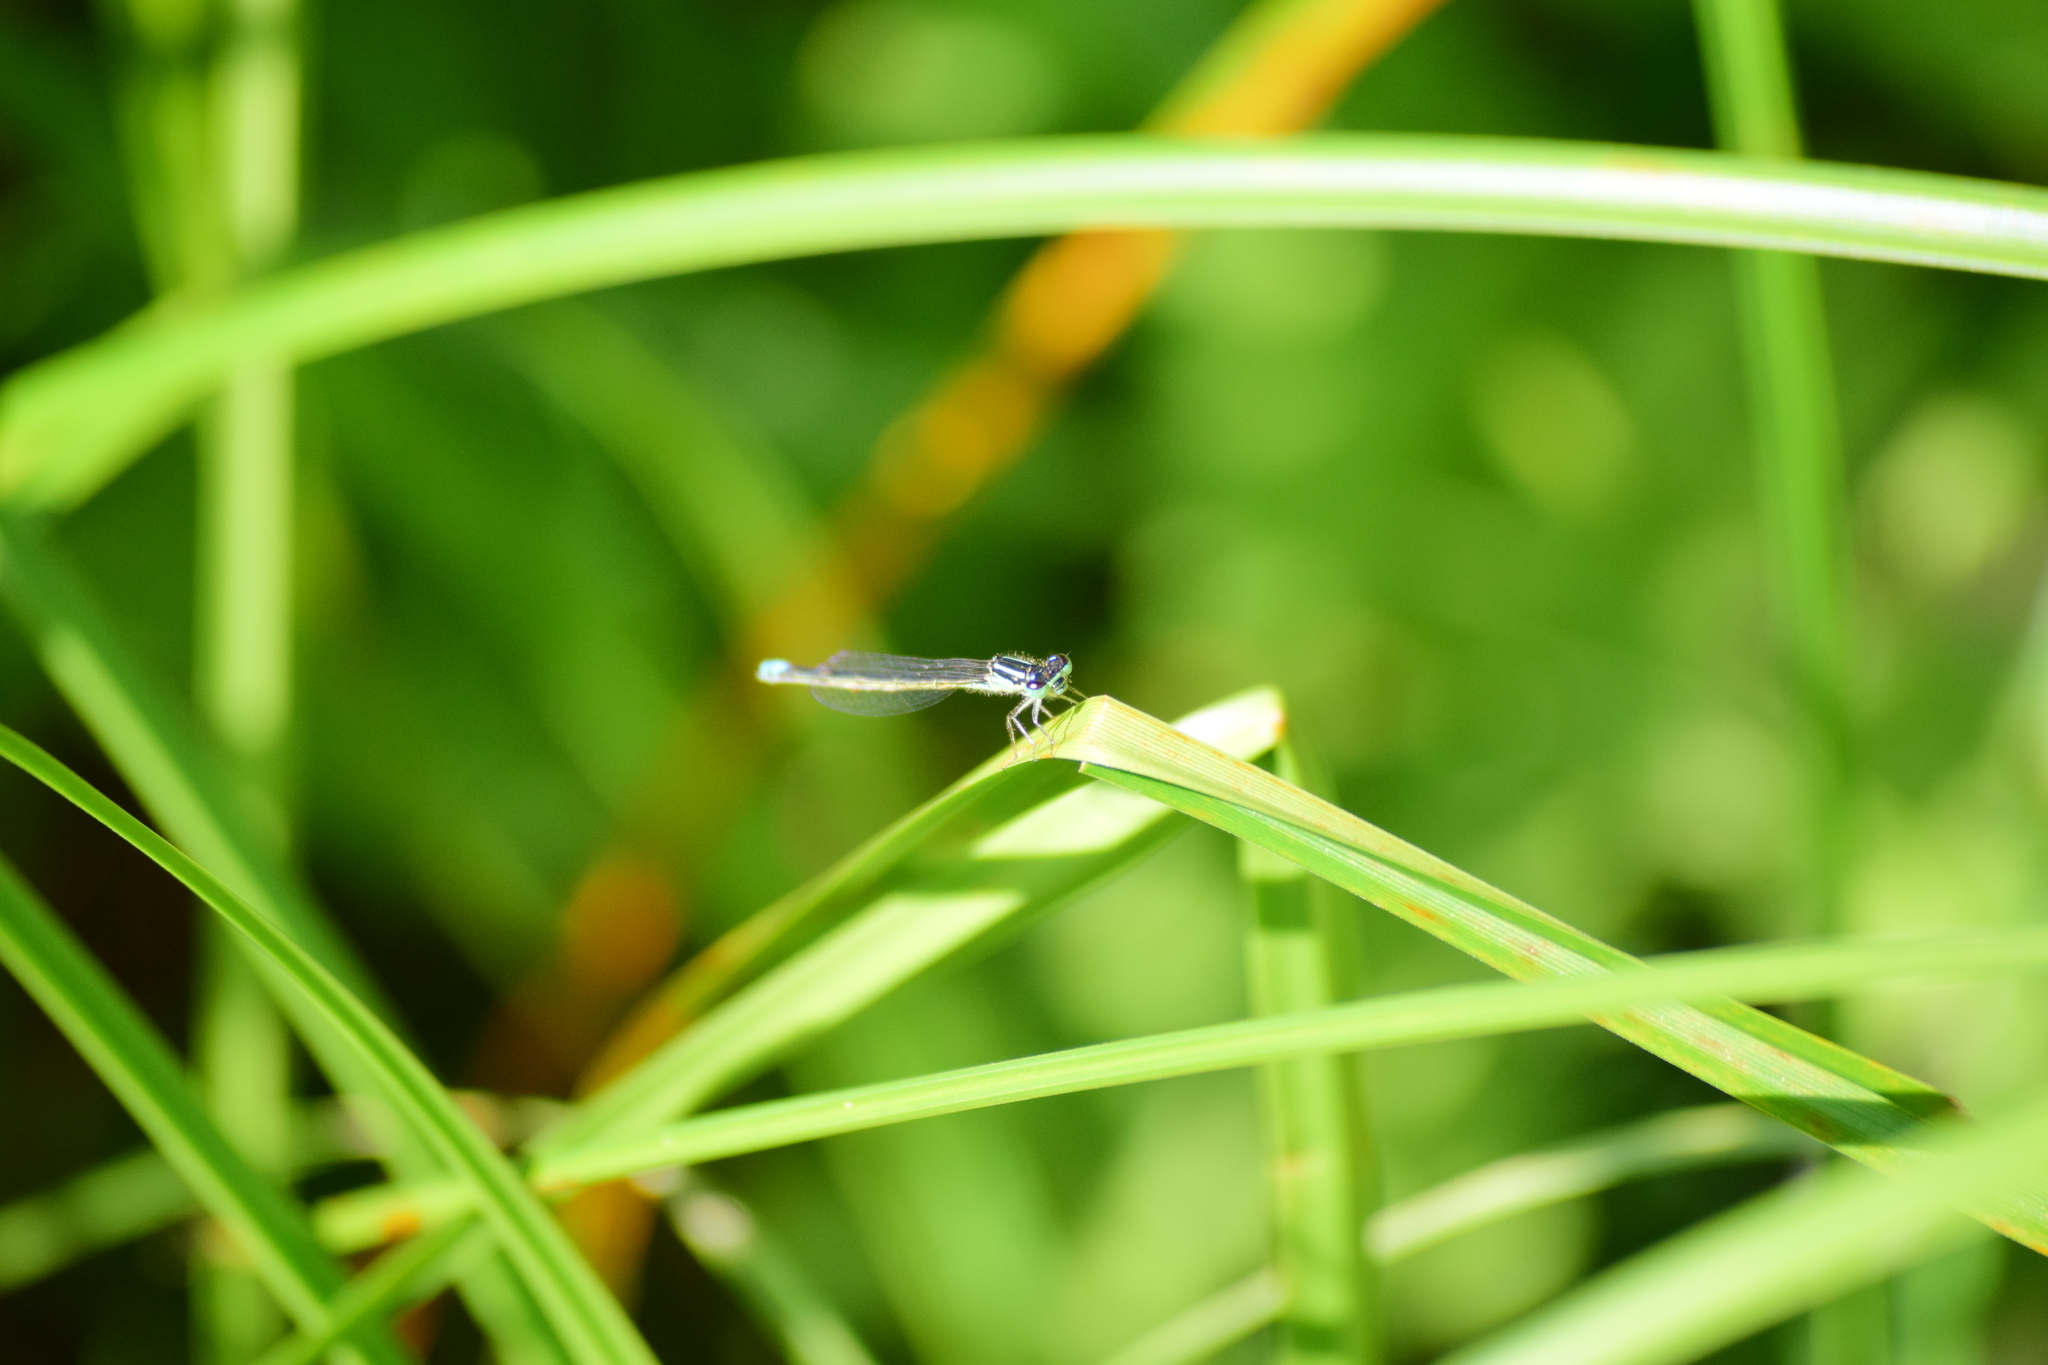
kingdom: Animalia
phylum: Arthropoda
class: Insecta
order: Odonata
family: Coenagrionidae
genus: Ischnura
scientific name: Ischnura verticalis
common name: Eastern forktail
